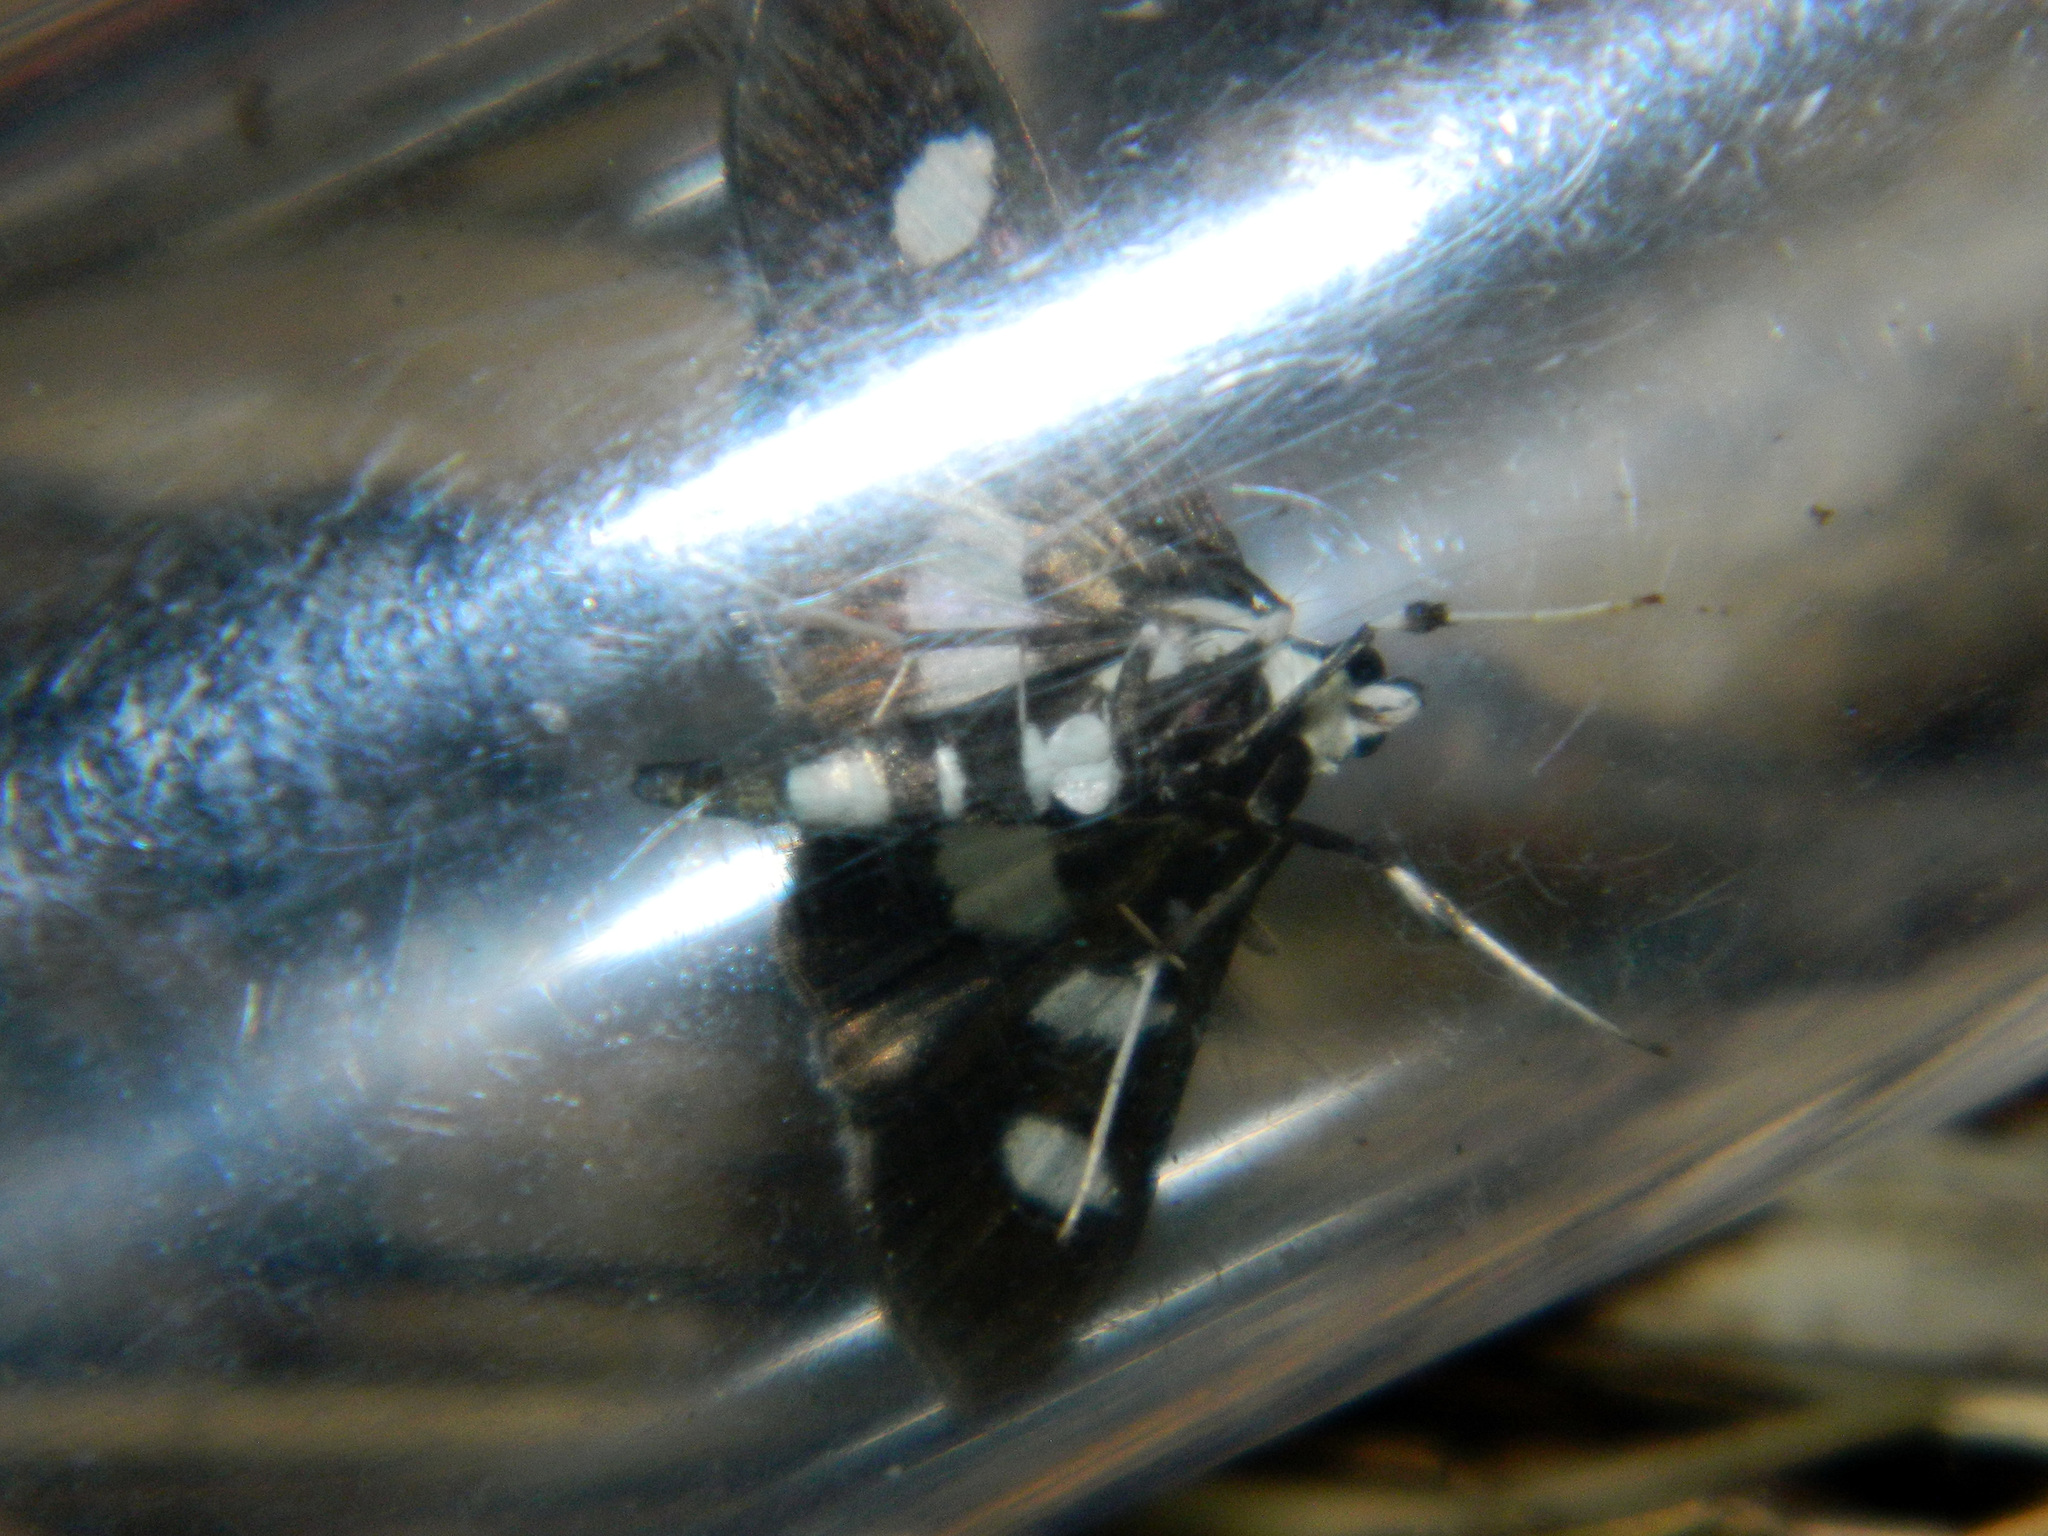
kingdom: Animalia
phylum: Arthropoda
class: Insecta
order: Lepidoptera
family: Crambidae
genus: Desmia
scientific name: Desmia funeralis
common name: Grape leaf folder moth
